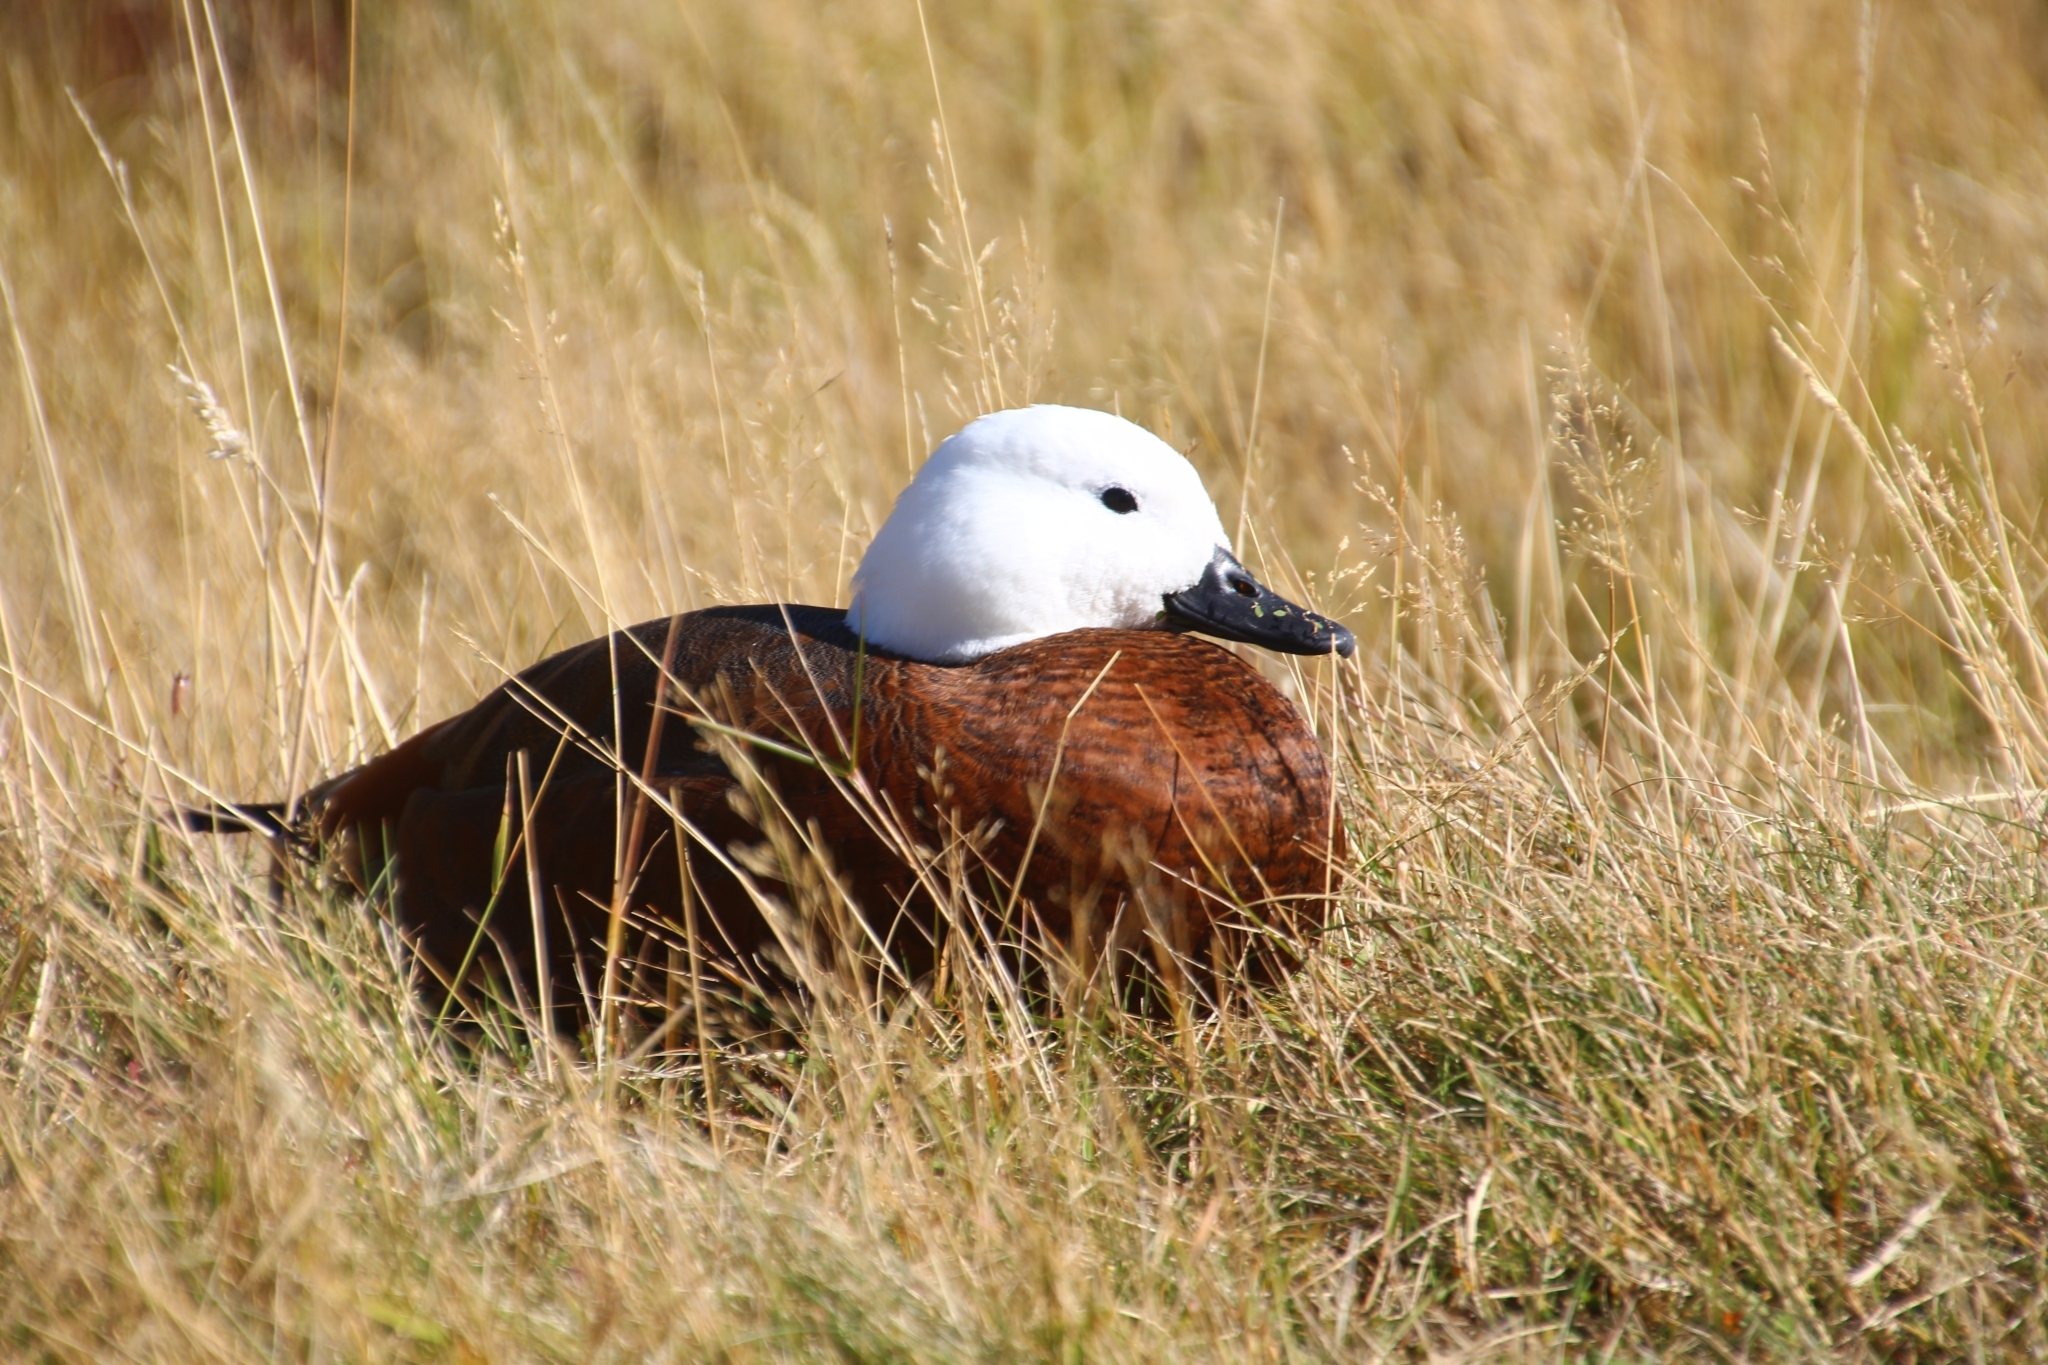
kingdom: Animalia
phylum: Chordata
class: Aves
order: Anseriformes
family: Anatidae
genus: Tadorna
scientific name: Tadorna variegata
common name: Paradise shelduck
